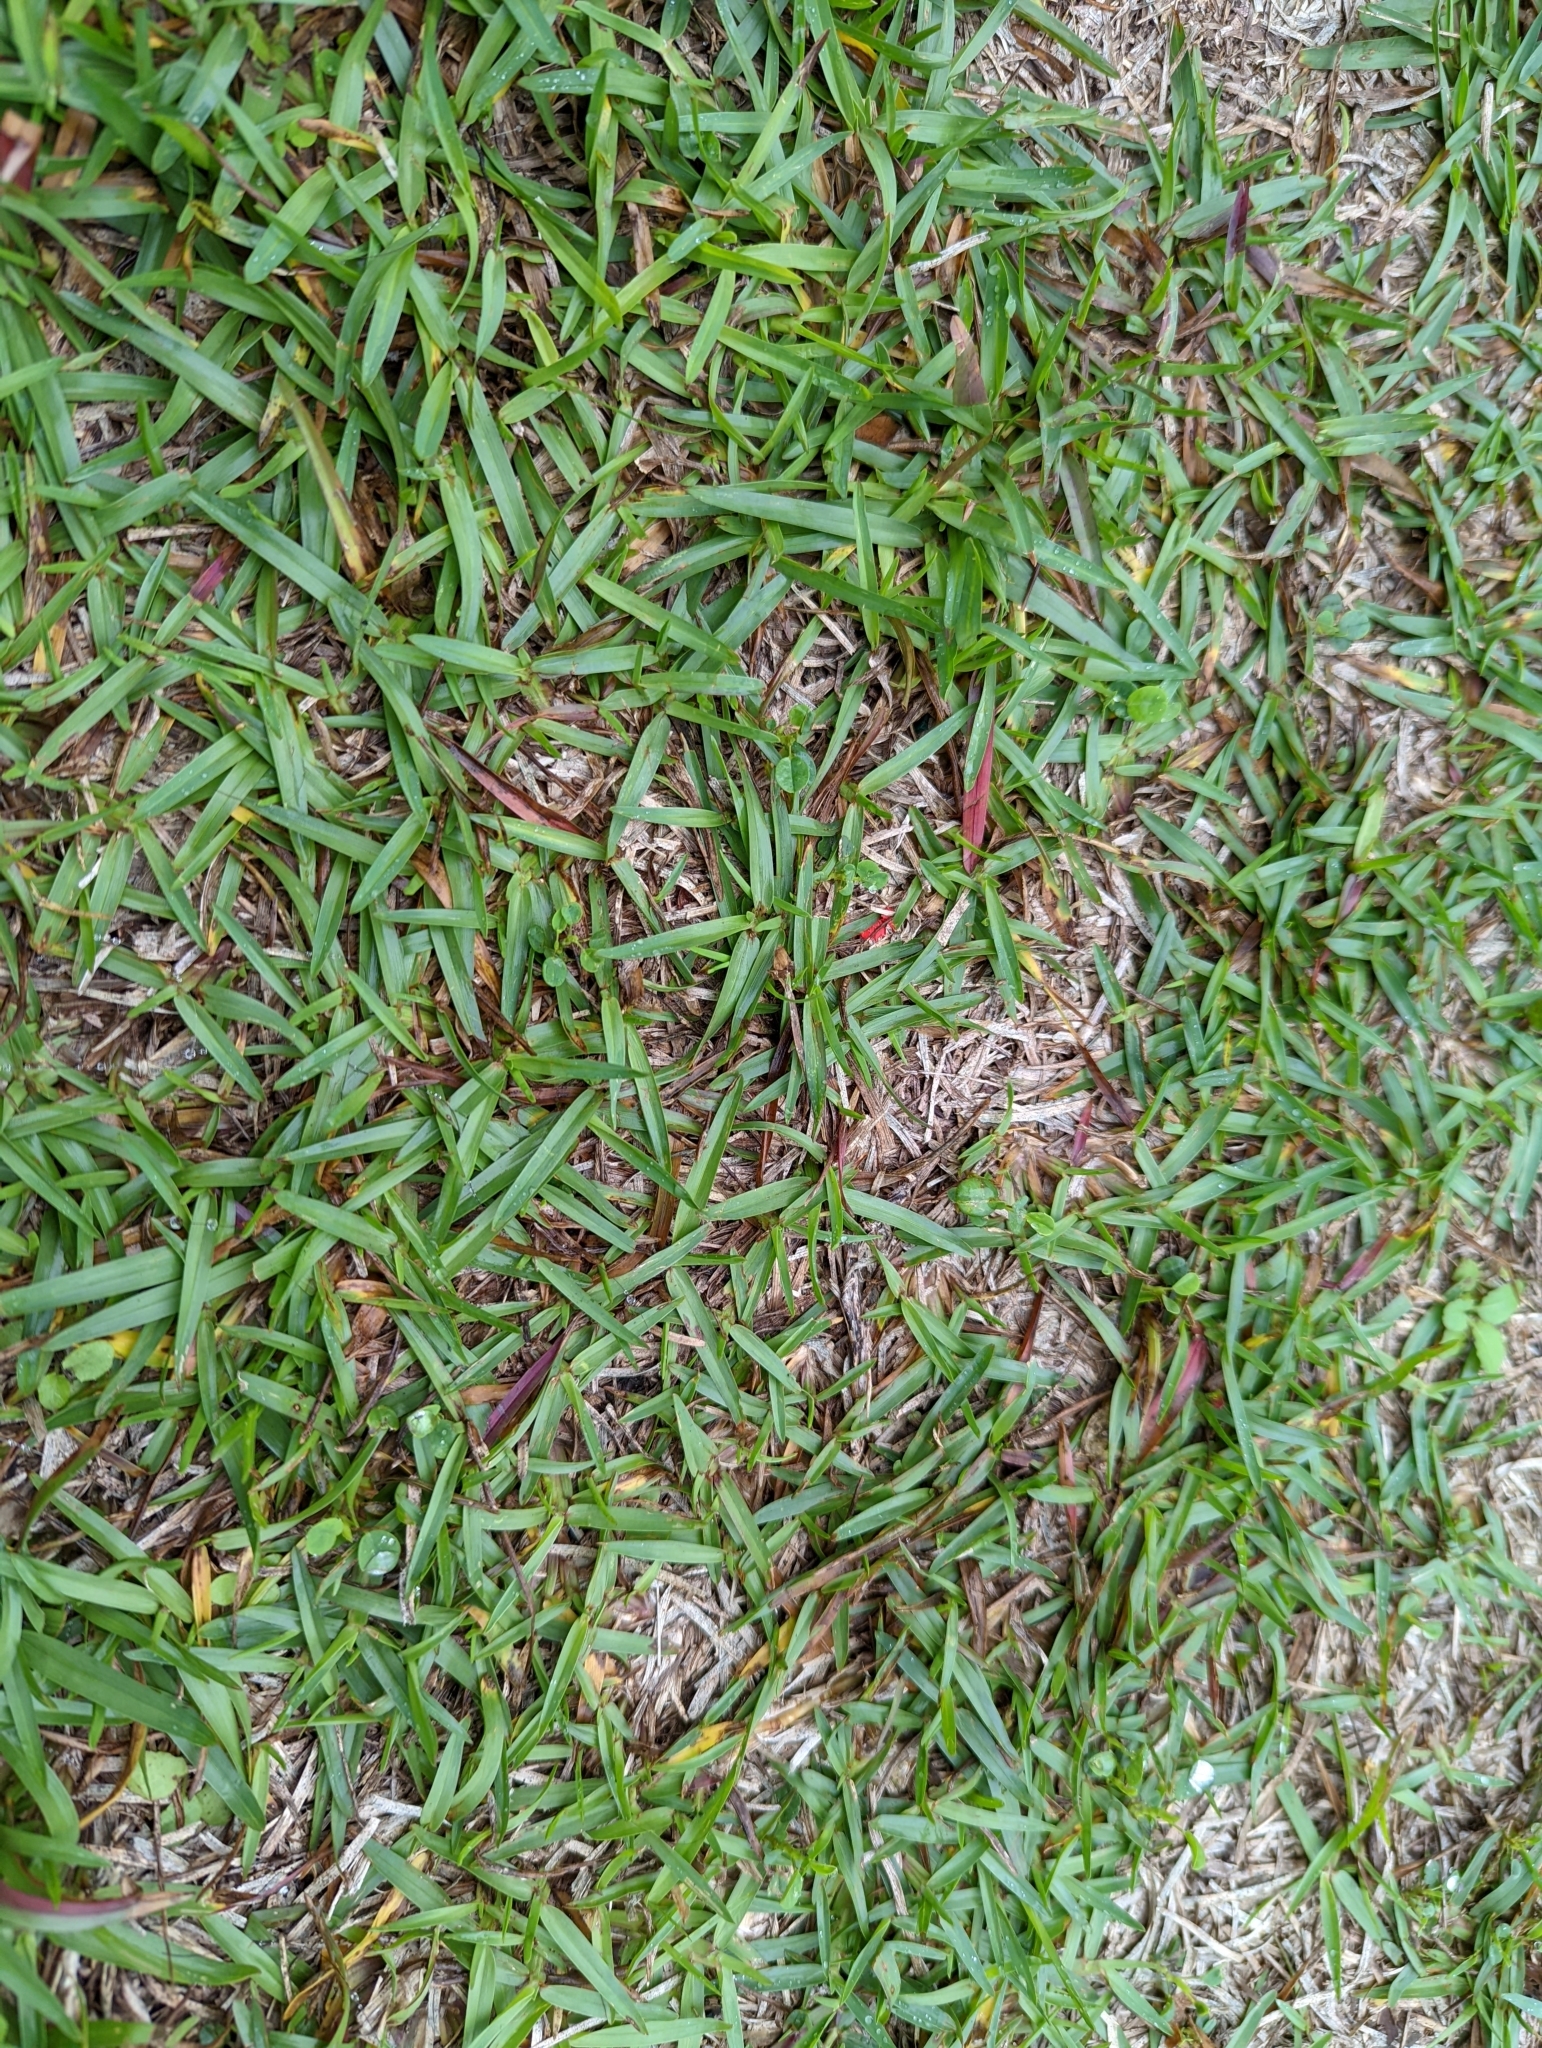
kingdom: Plantae
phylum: Tracheophyta
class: Liliopsida
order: Poales
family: Poaceae
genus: Stenotaphrum
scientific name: Stenotaphrum secundatum
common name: St. augustine grass
